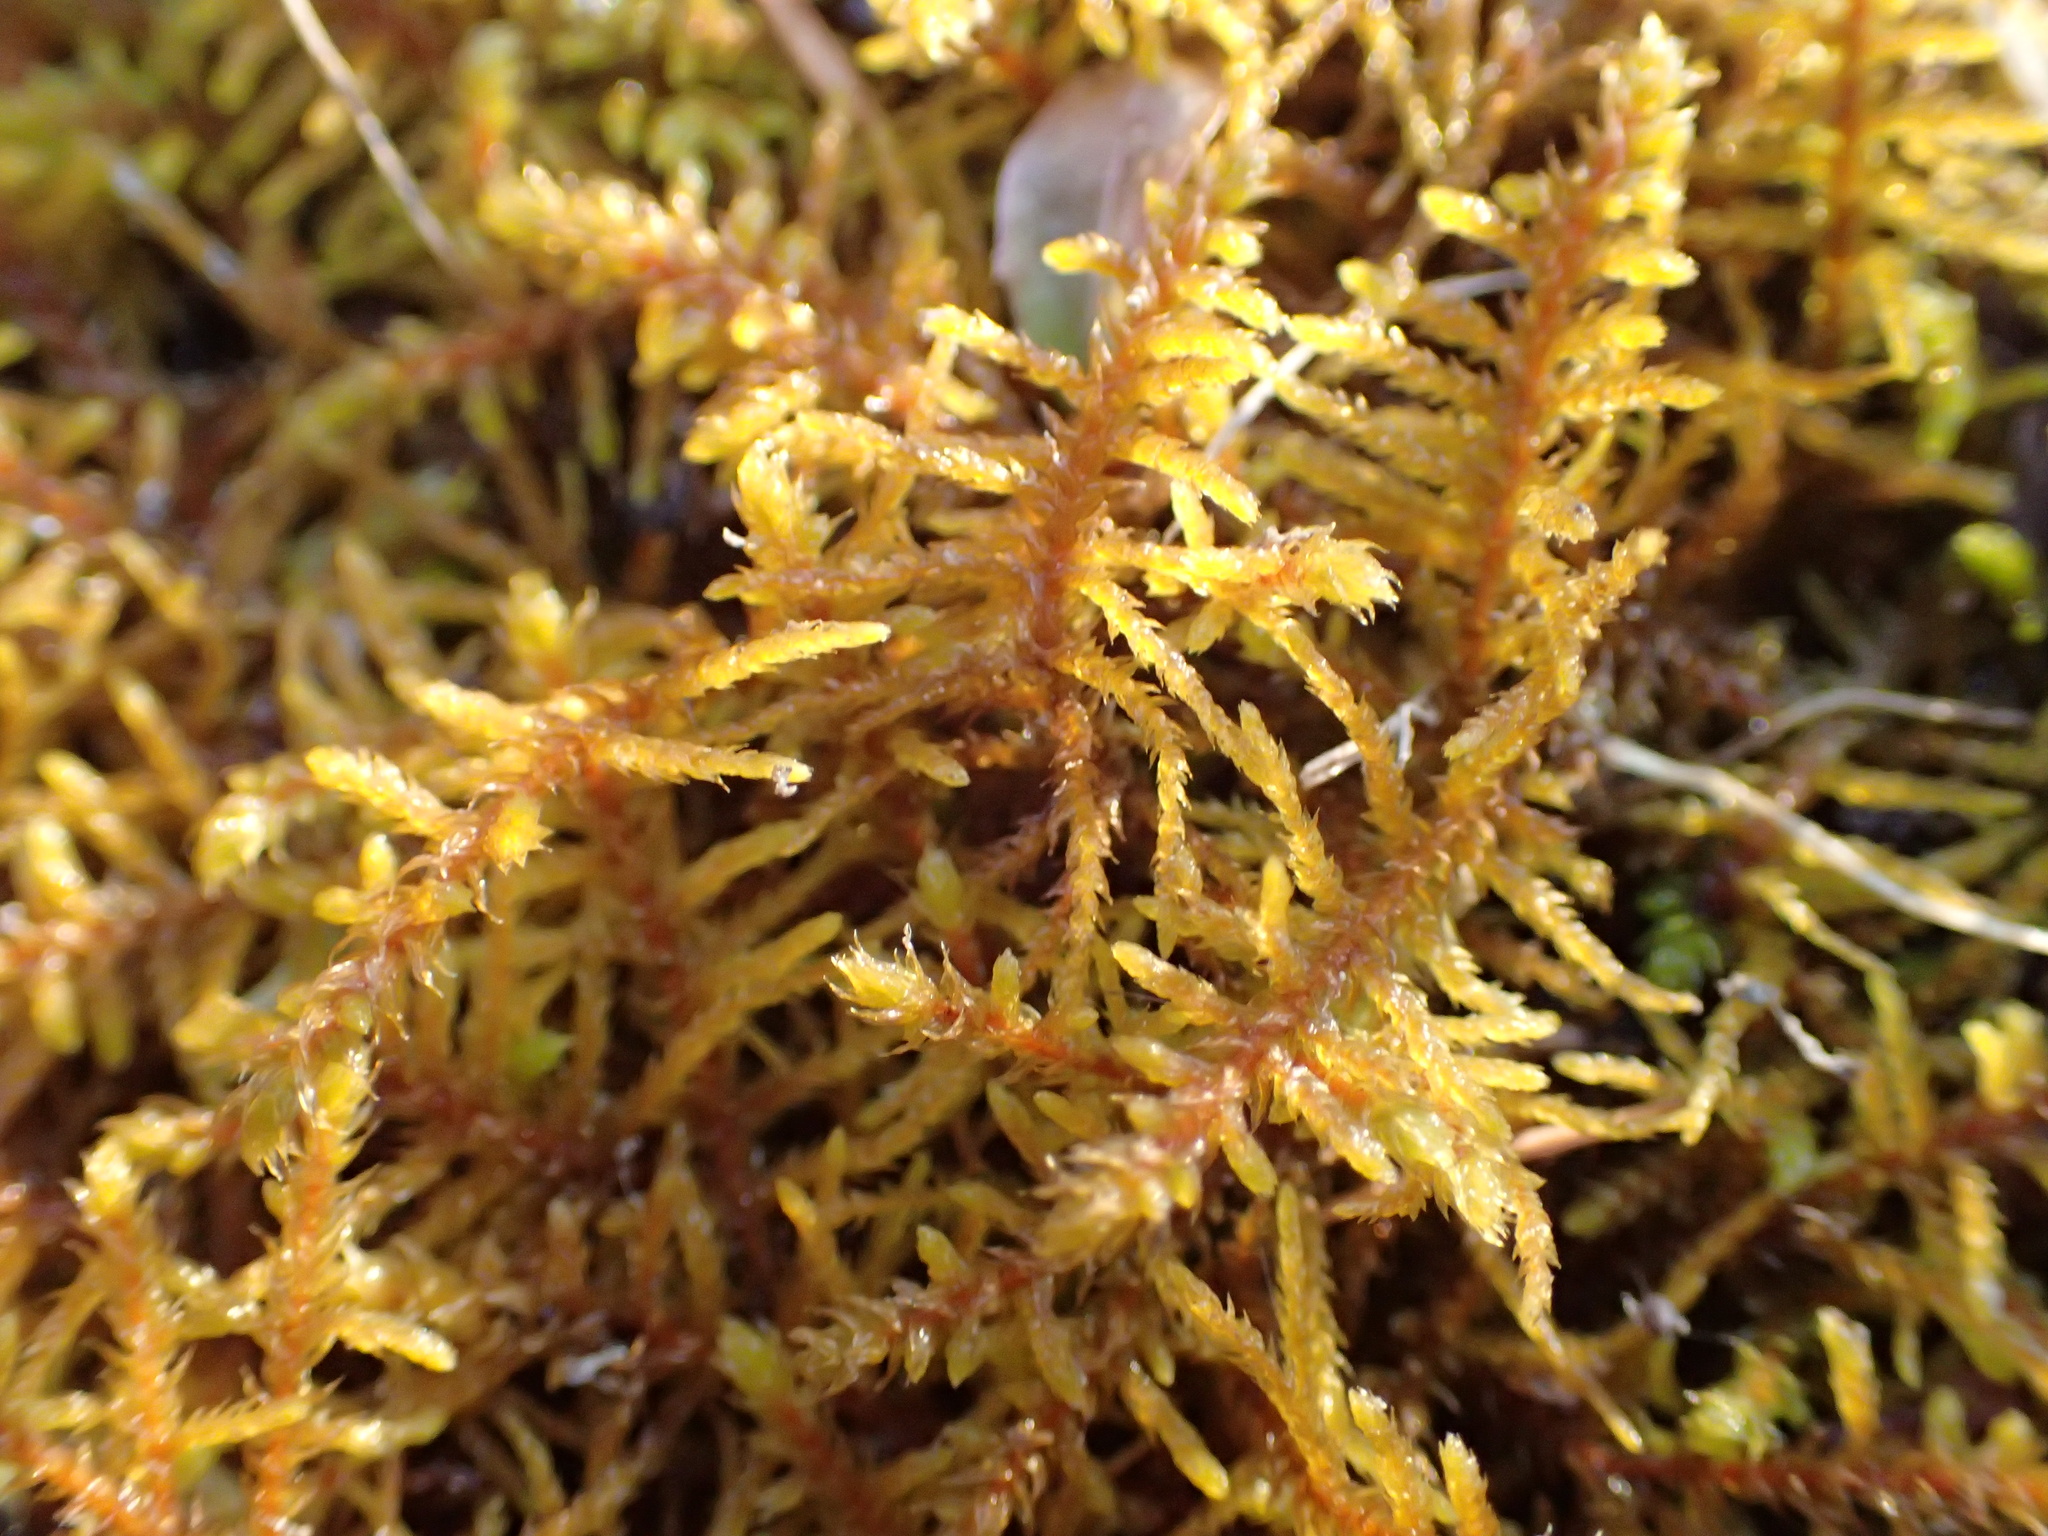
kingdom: Plantae
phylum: Bryophyta
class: Bryopsida
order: Hypnales
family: Thuidiaceae
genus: Abietinella
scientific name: Abietinella abietina
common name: Wiry fern moss
